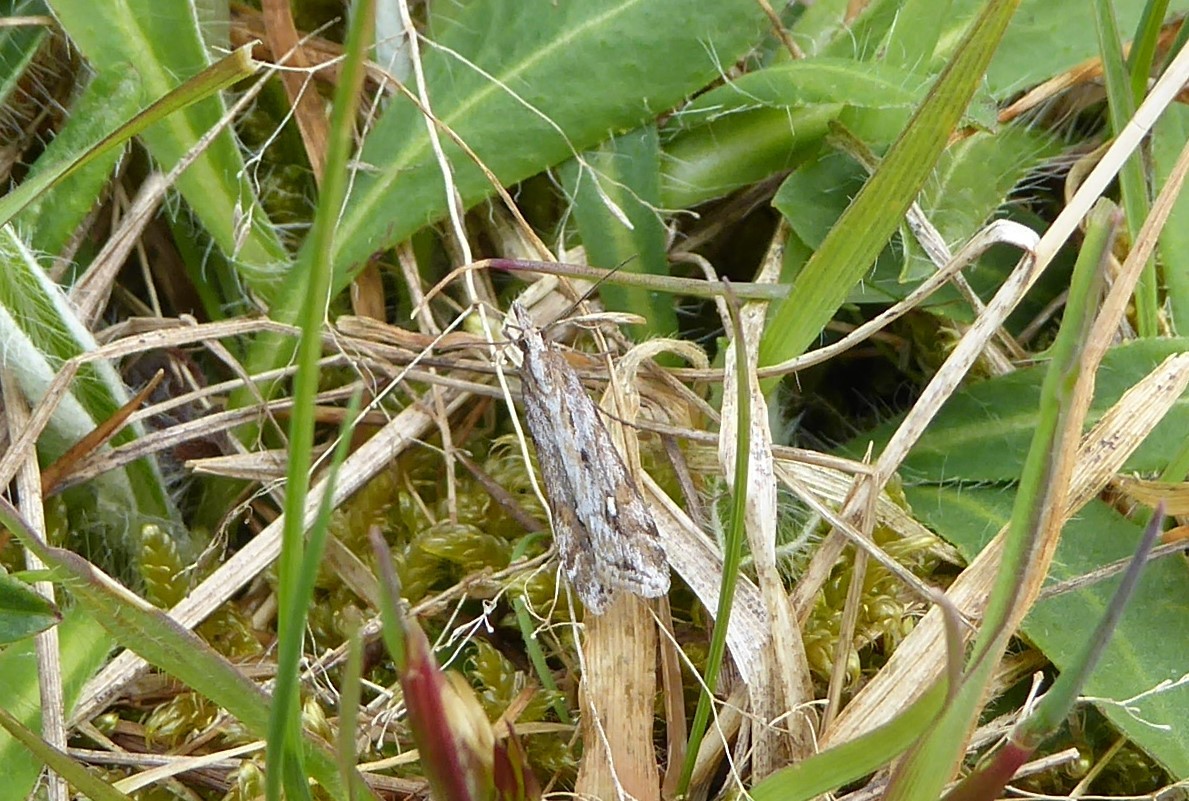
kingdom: Animalia
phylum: Arthropoda
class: Insecta
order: Lepidoptera
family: Crambidae
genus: Scoparia
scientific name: Scoparia exilis
